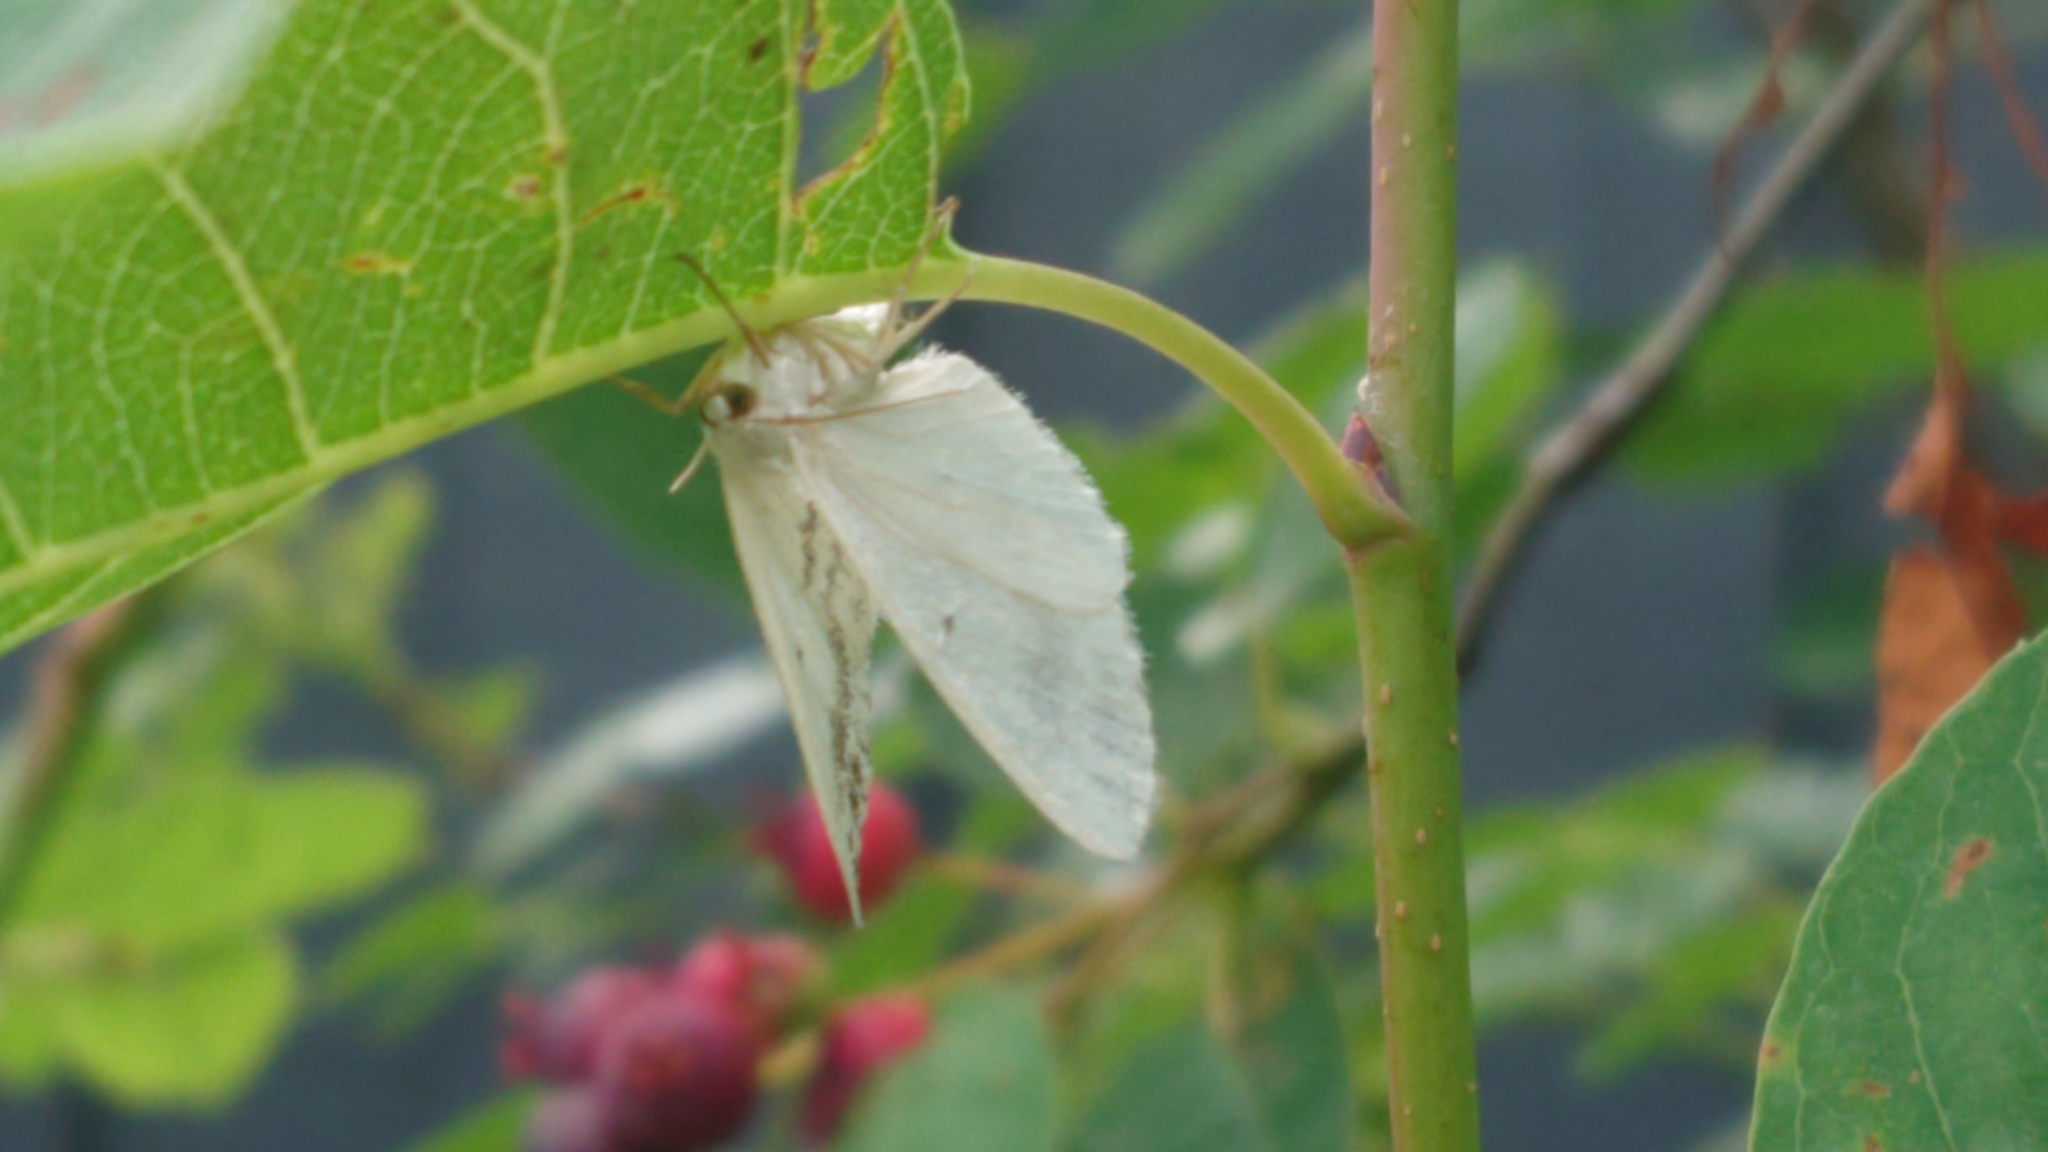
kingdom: Animalia
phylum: Arthropoda
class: Insecta
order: Lepidoptera
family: Geometridae
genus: Lomographa
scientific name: Lomographa temerata
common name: Clouded silver
